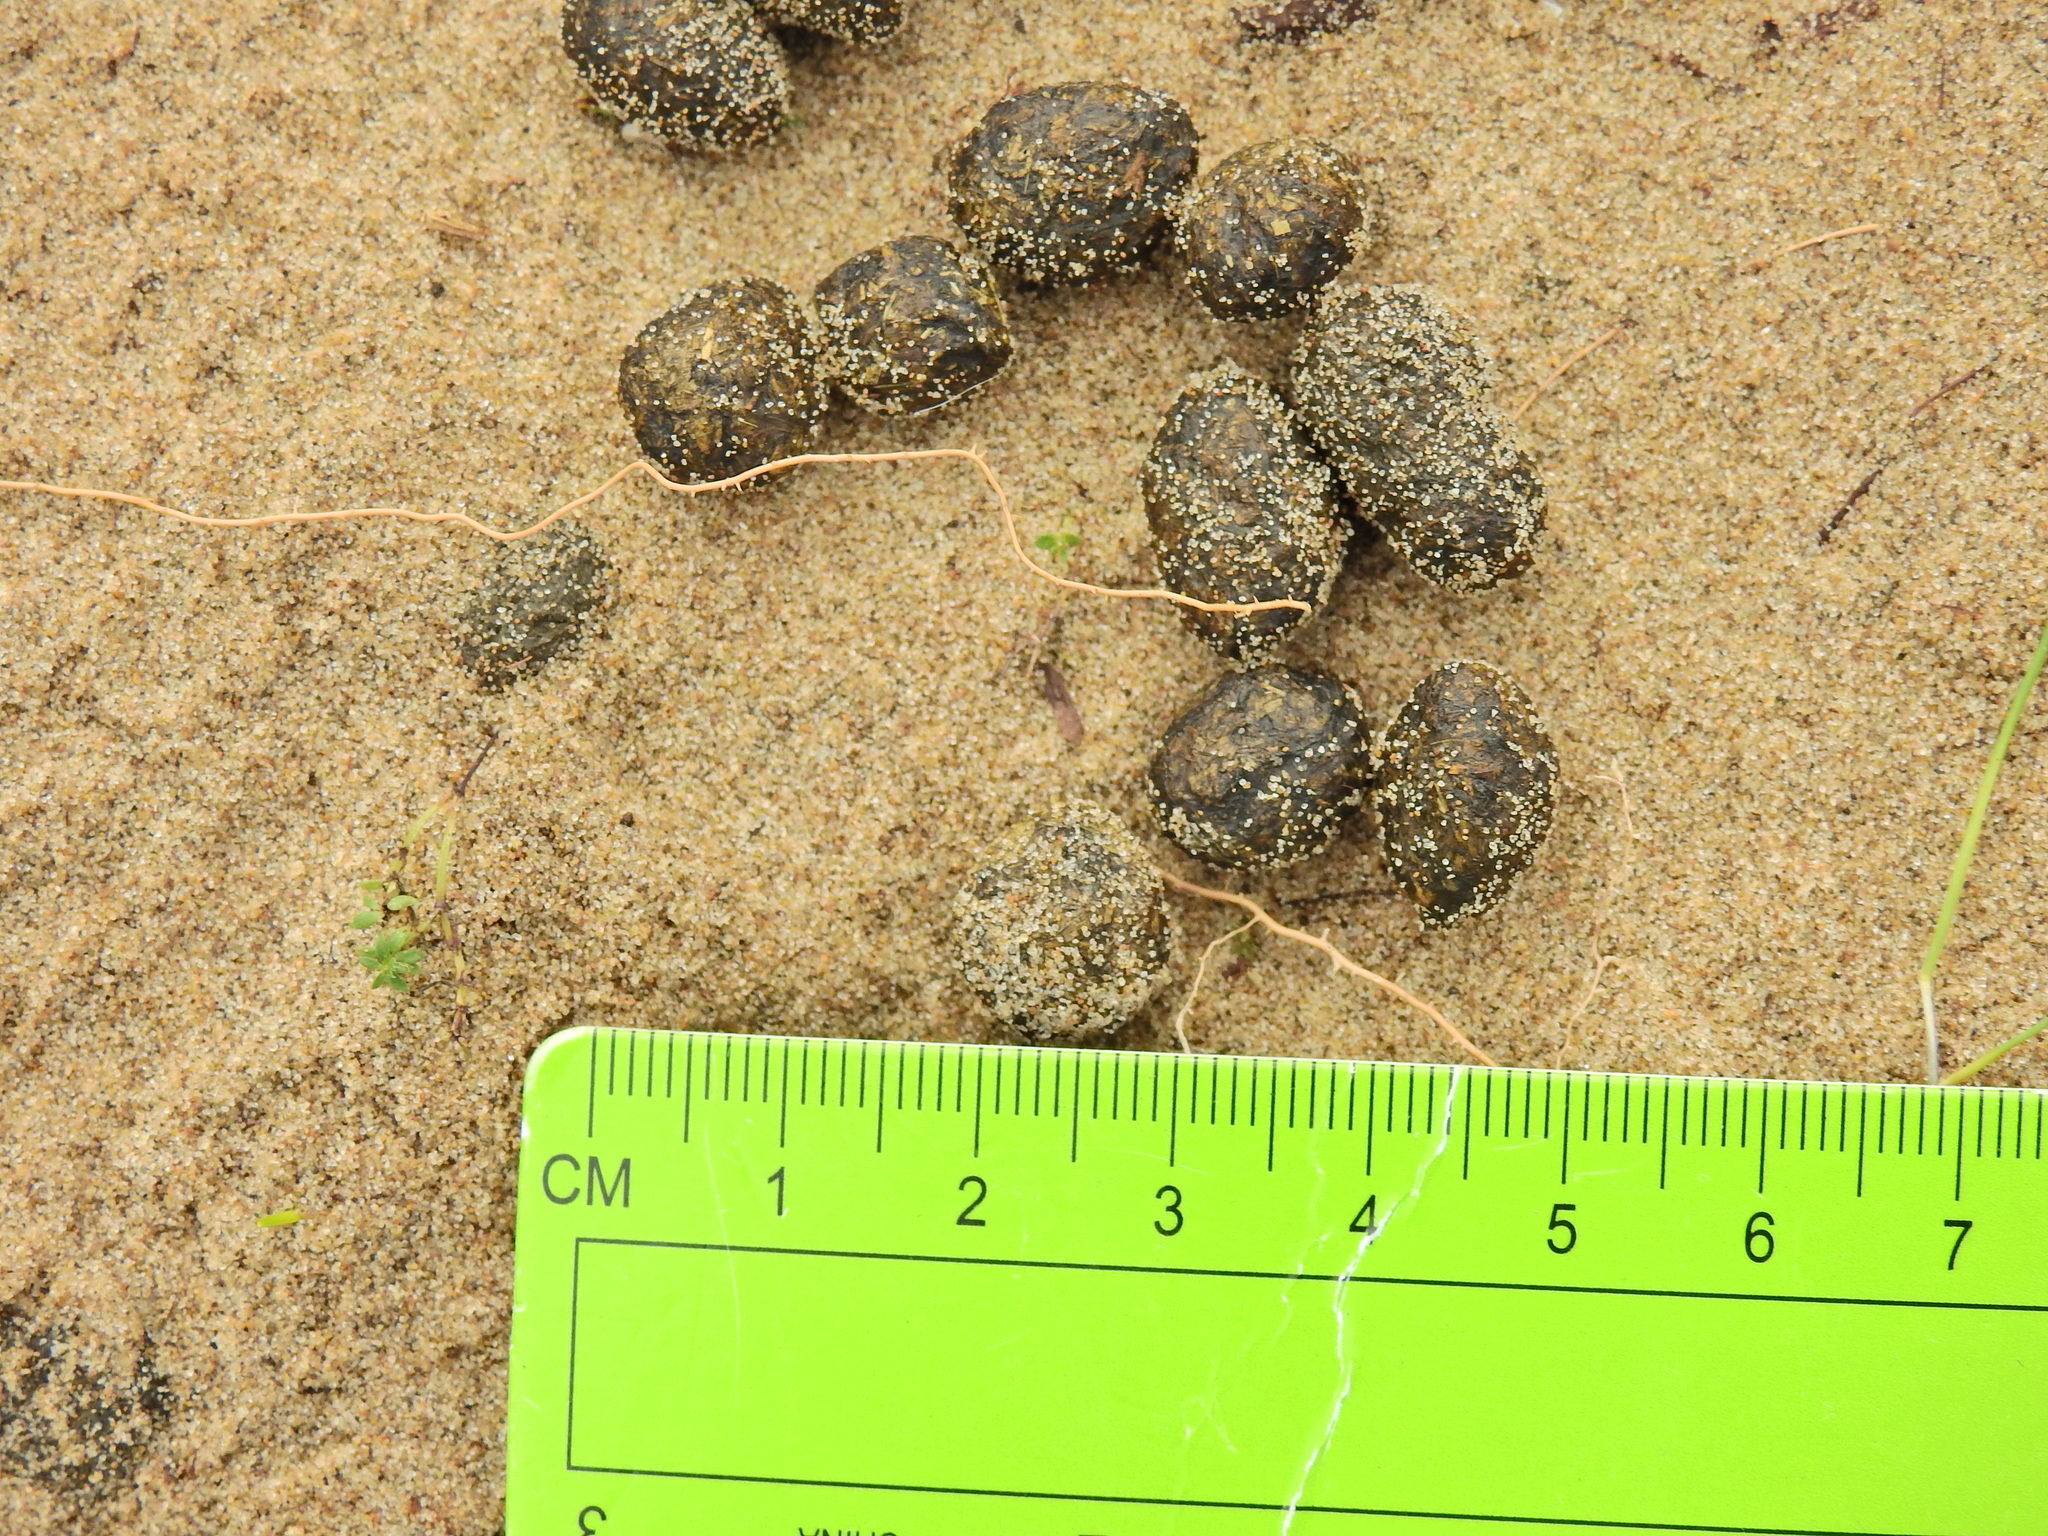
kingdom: Animalia
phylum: Chordata
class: Mammalia
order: Lagomorpha
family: Leporidae
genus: Oryctolagus
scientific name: Oryctolagus cuniculus
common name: European rabbit
